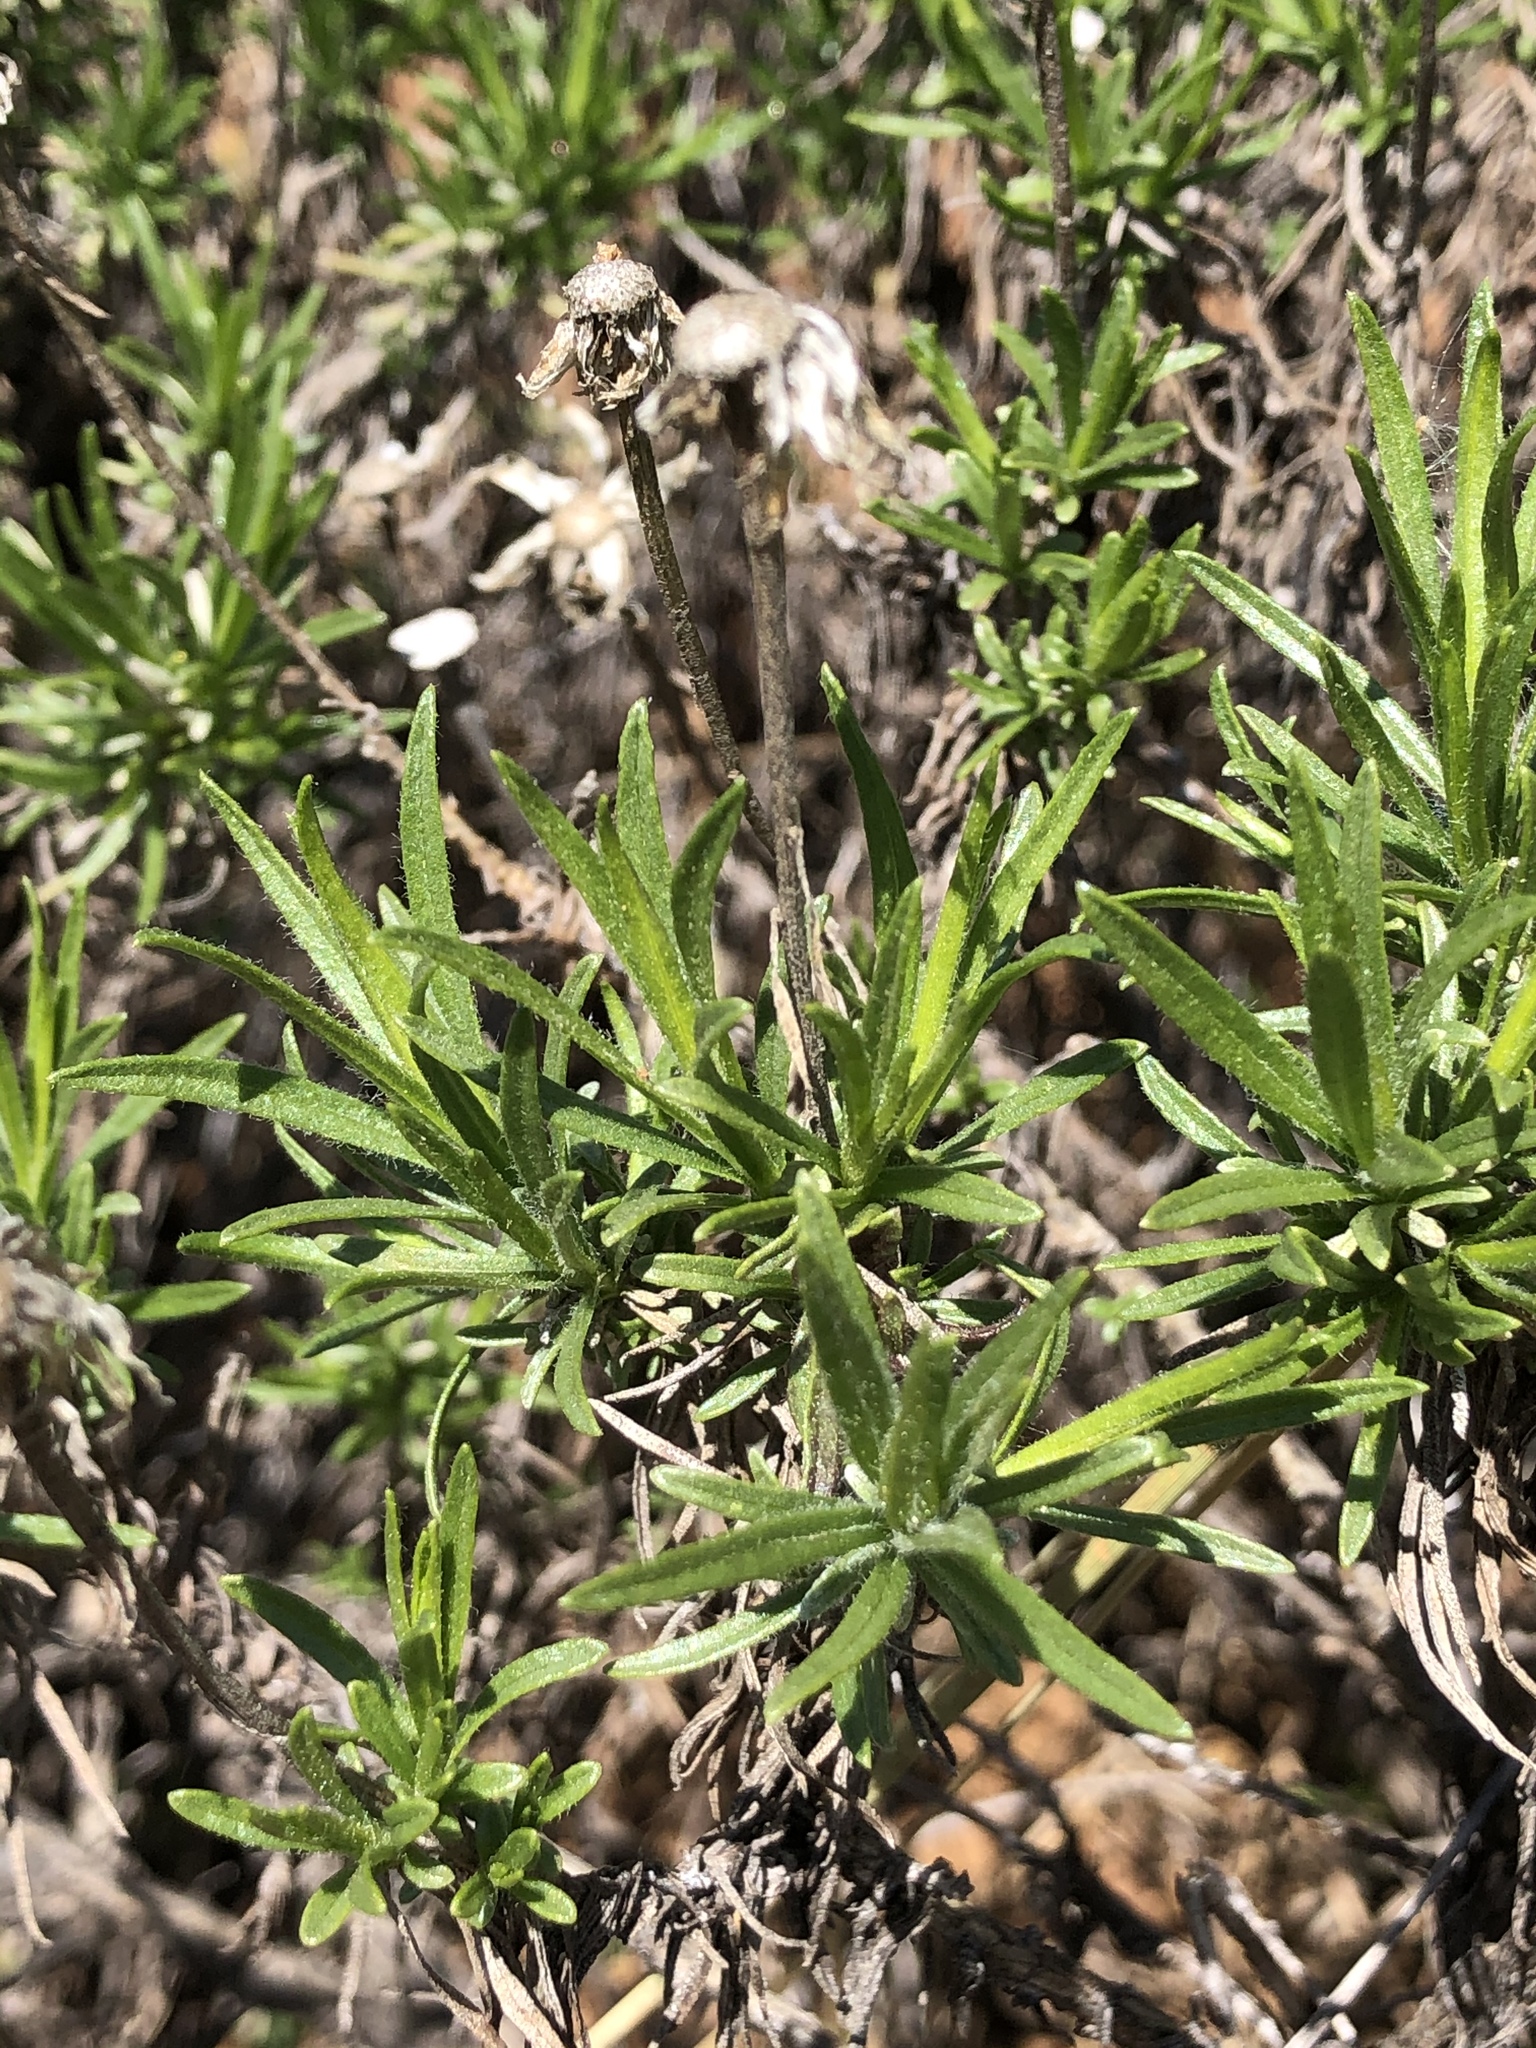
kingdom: Plantae
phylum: Tracheophyta
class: Magnoliopsida
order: Asterales
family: Asteraceae
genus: Ericameria
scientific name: Ericameria linearifolia
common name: Interior goldenbush
